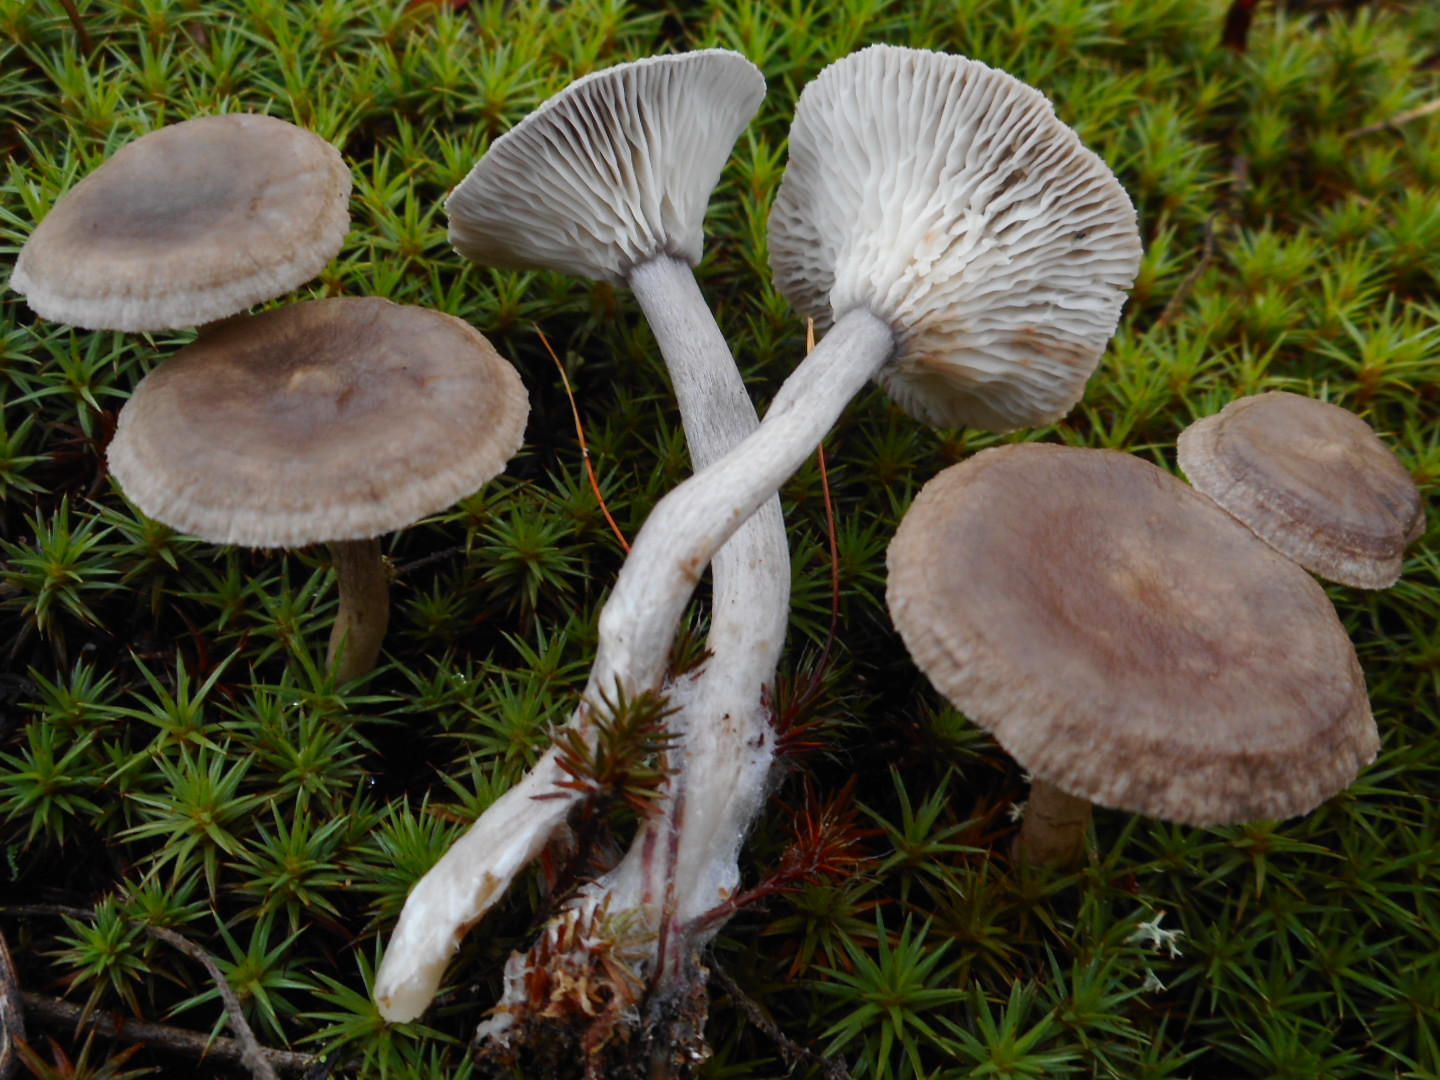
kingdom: Fungi
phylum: Basidiomycota
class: Agaricomycetes
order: Agaricales
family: Hygrophoraceae
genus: Cantharellula
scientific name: Cantharellula umbonata
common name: The humpback
